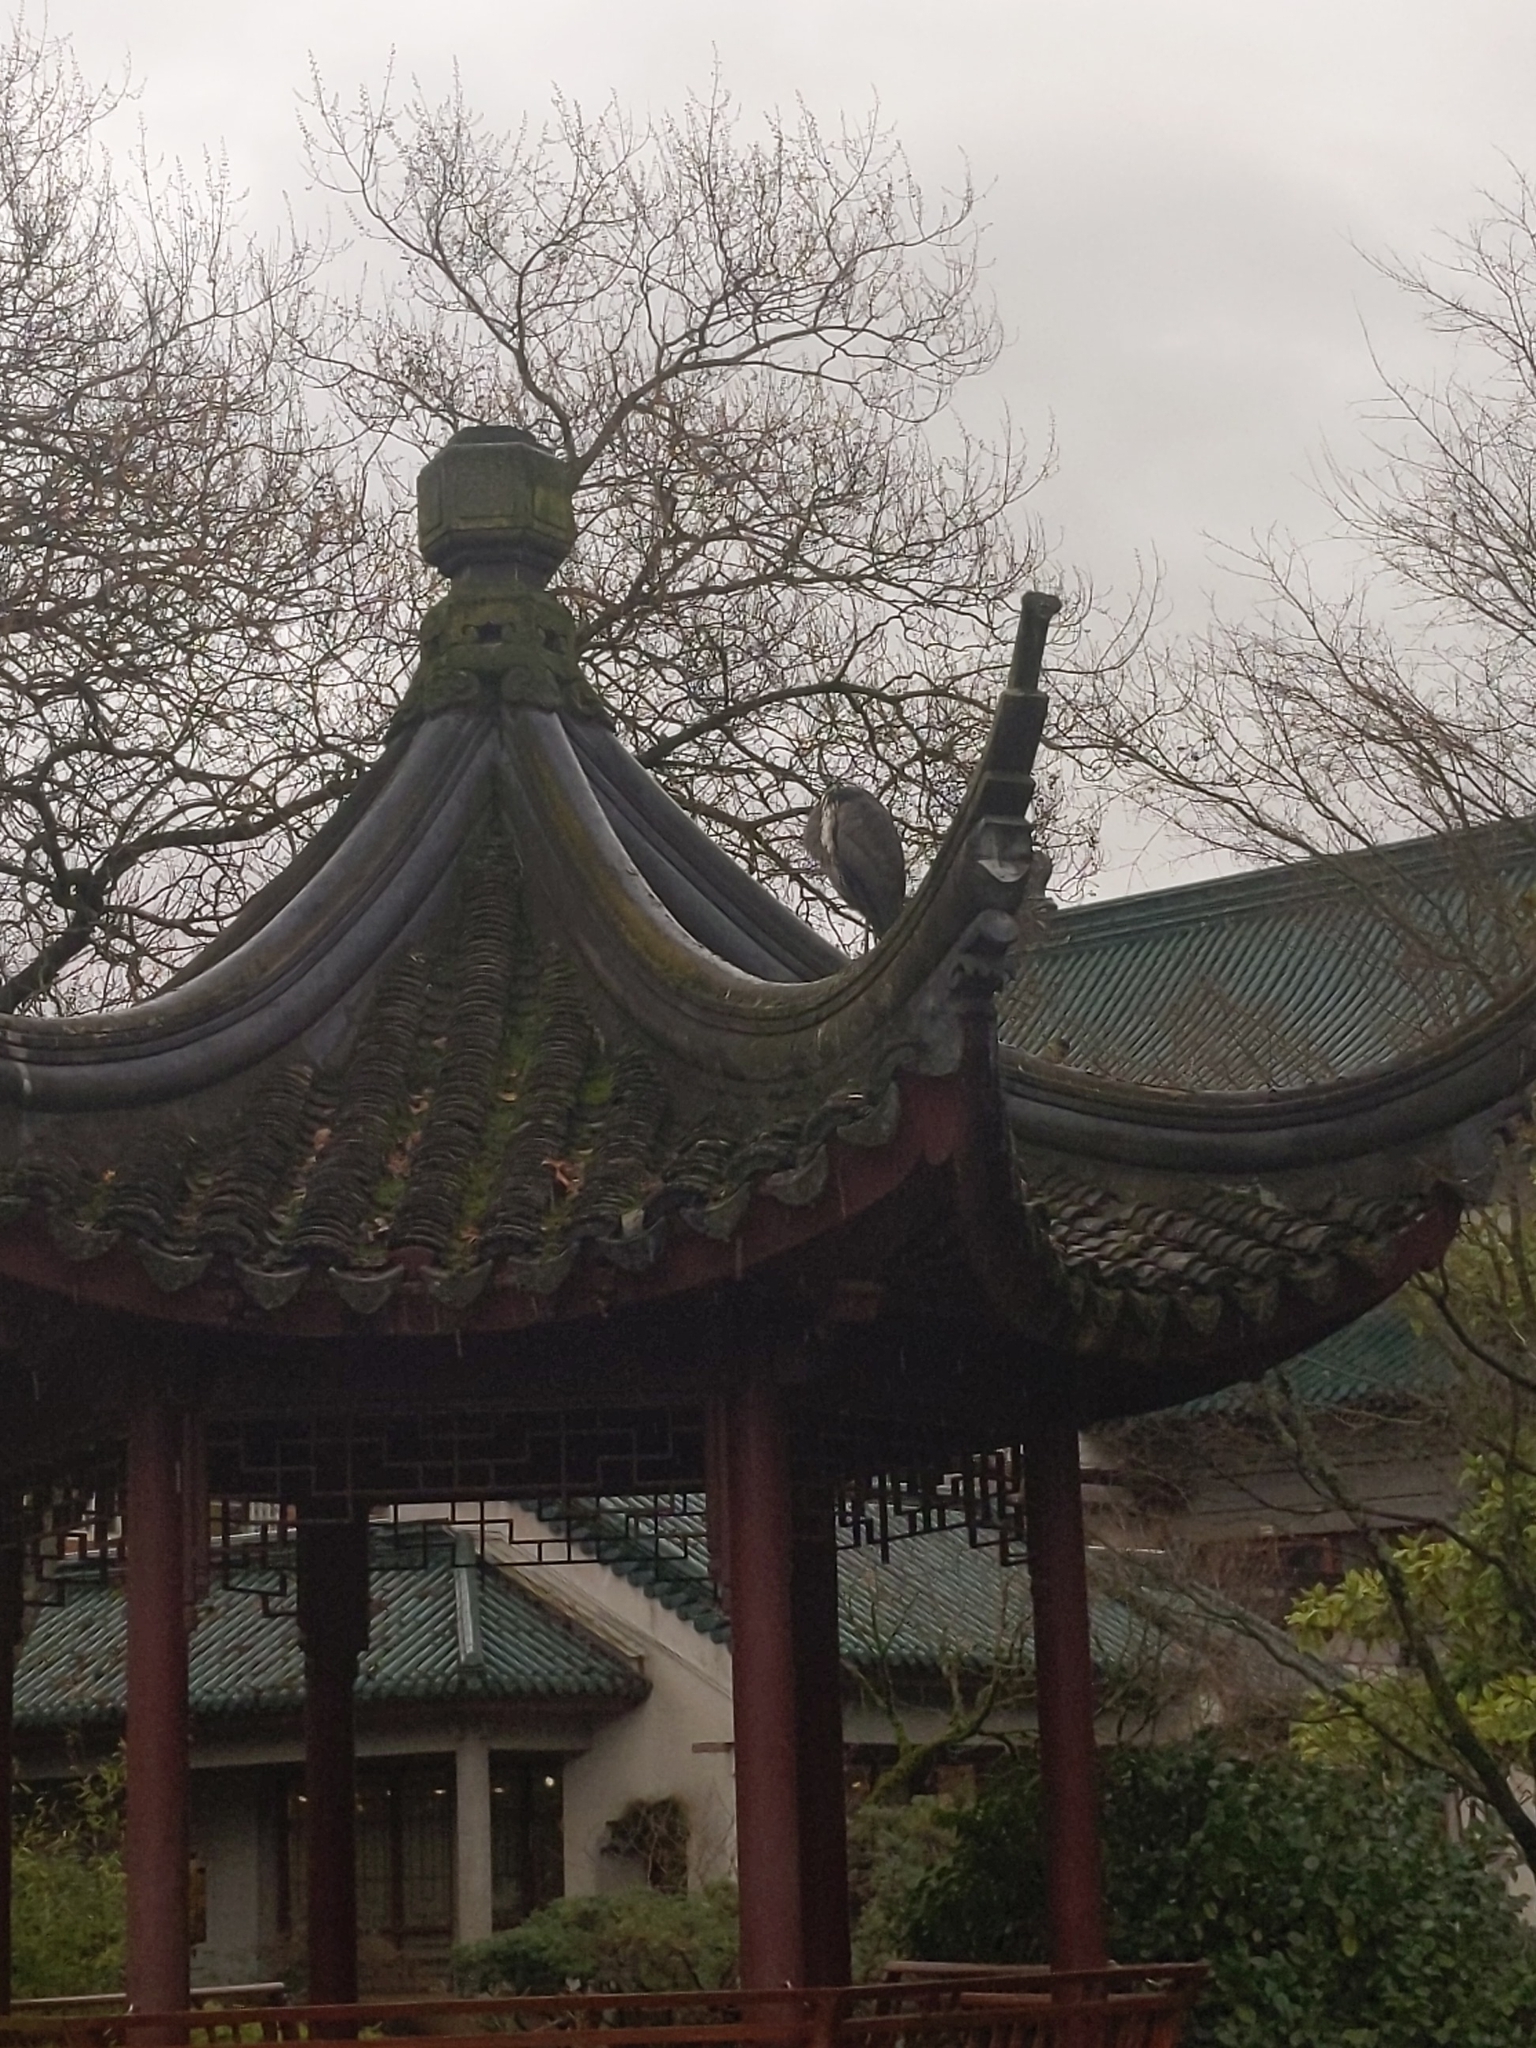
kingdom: Animalia
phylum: Chordata
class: Aves
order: Pelecaniformes
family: Ardeidae
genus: Ardea
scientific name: Ardea herodias
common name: Great blue heron
